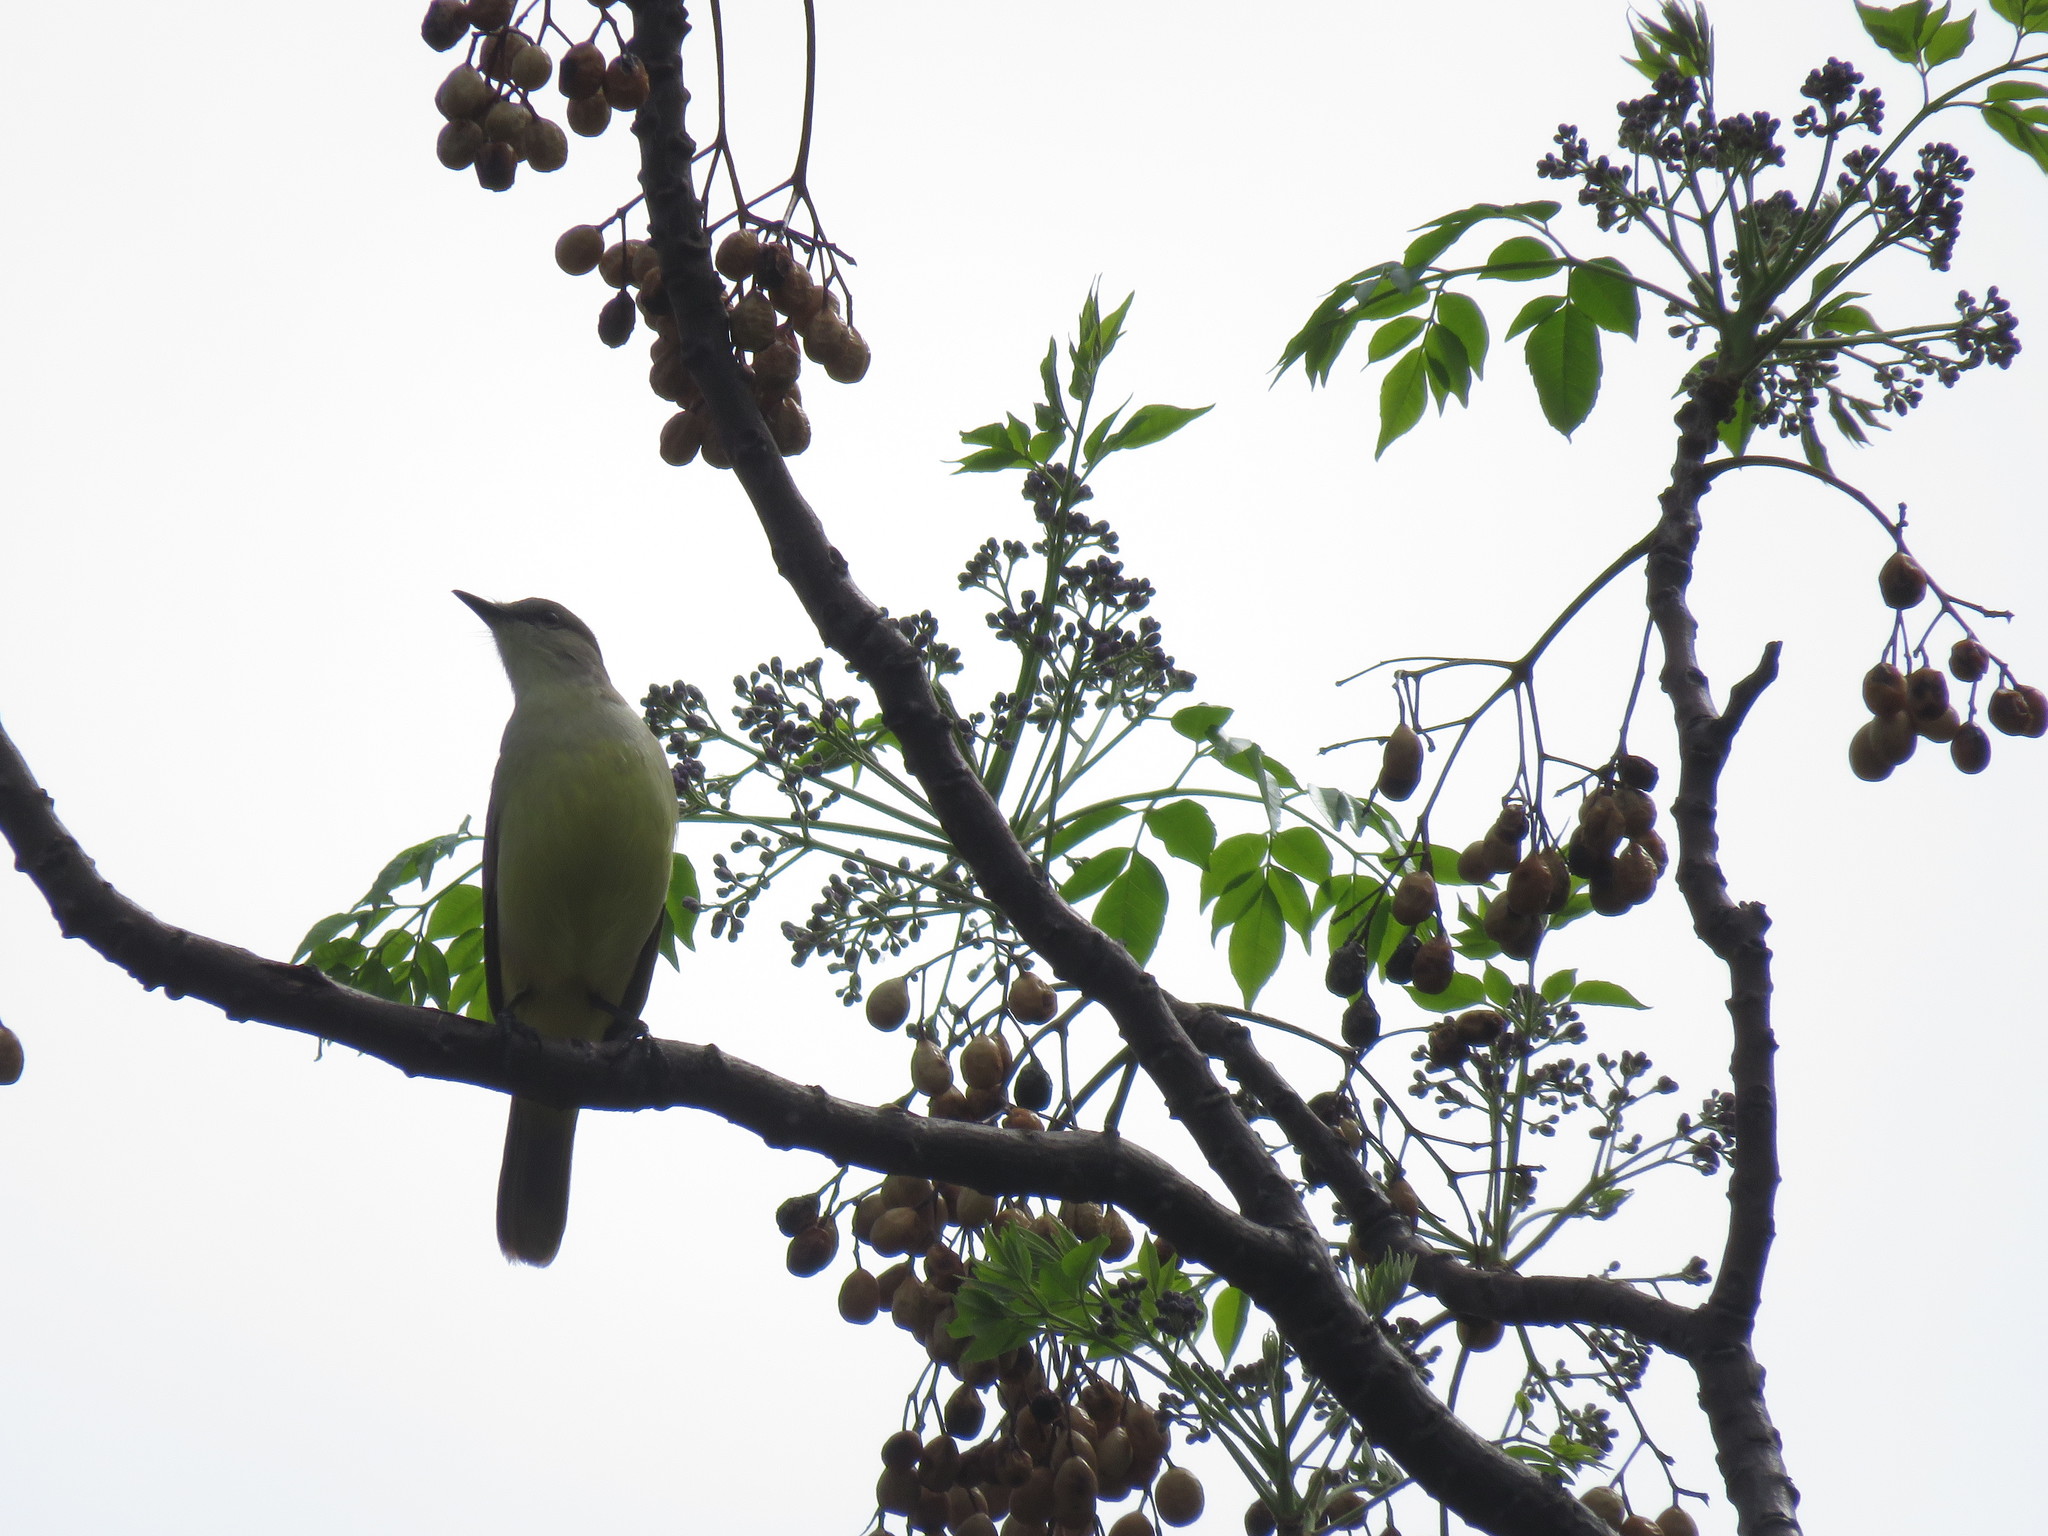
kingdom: Animalia
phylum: Chordata
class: Aves
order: Passeriformes
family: Tyrannidae
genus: Machetornis
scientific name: Machetornis rixosa
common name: Cattle tyrant
